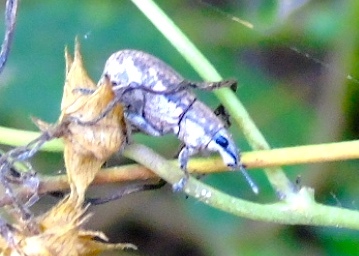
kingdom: Animalia
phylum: Arthropoda
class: Insecta
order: Coleoptera
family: Curculionidae
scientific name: Curculionidae
